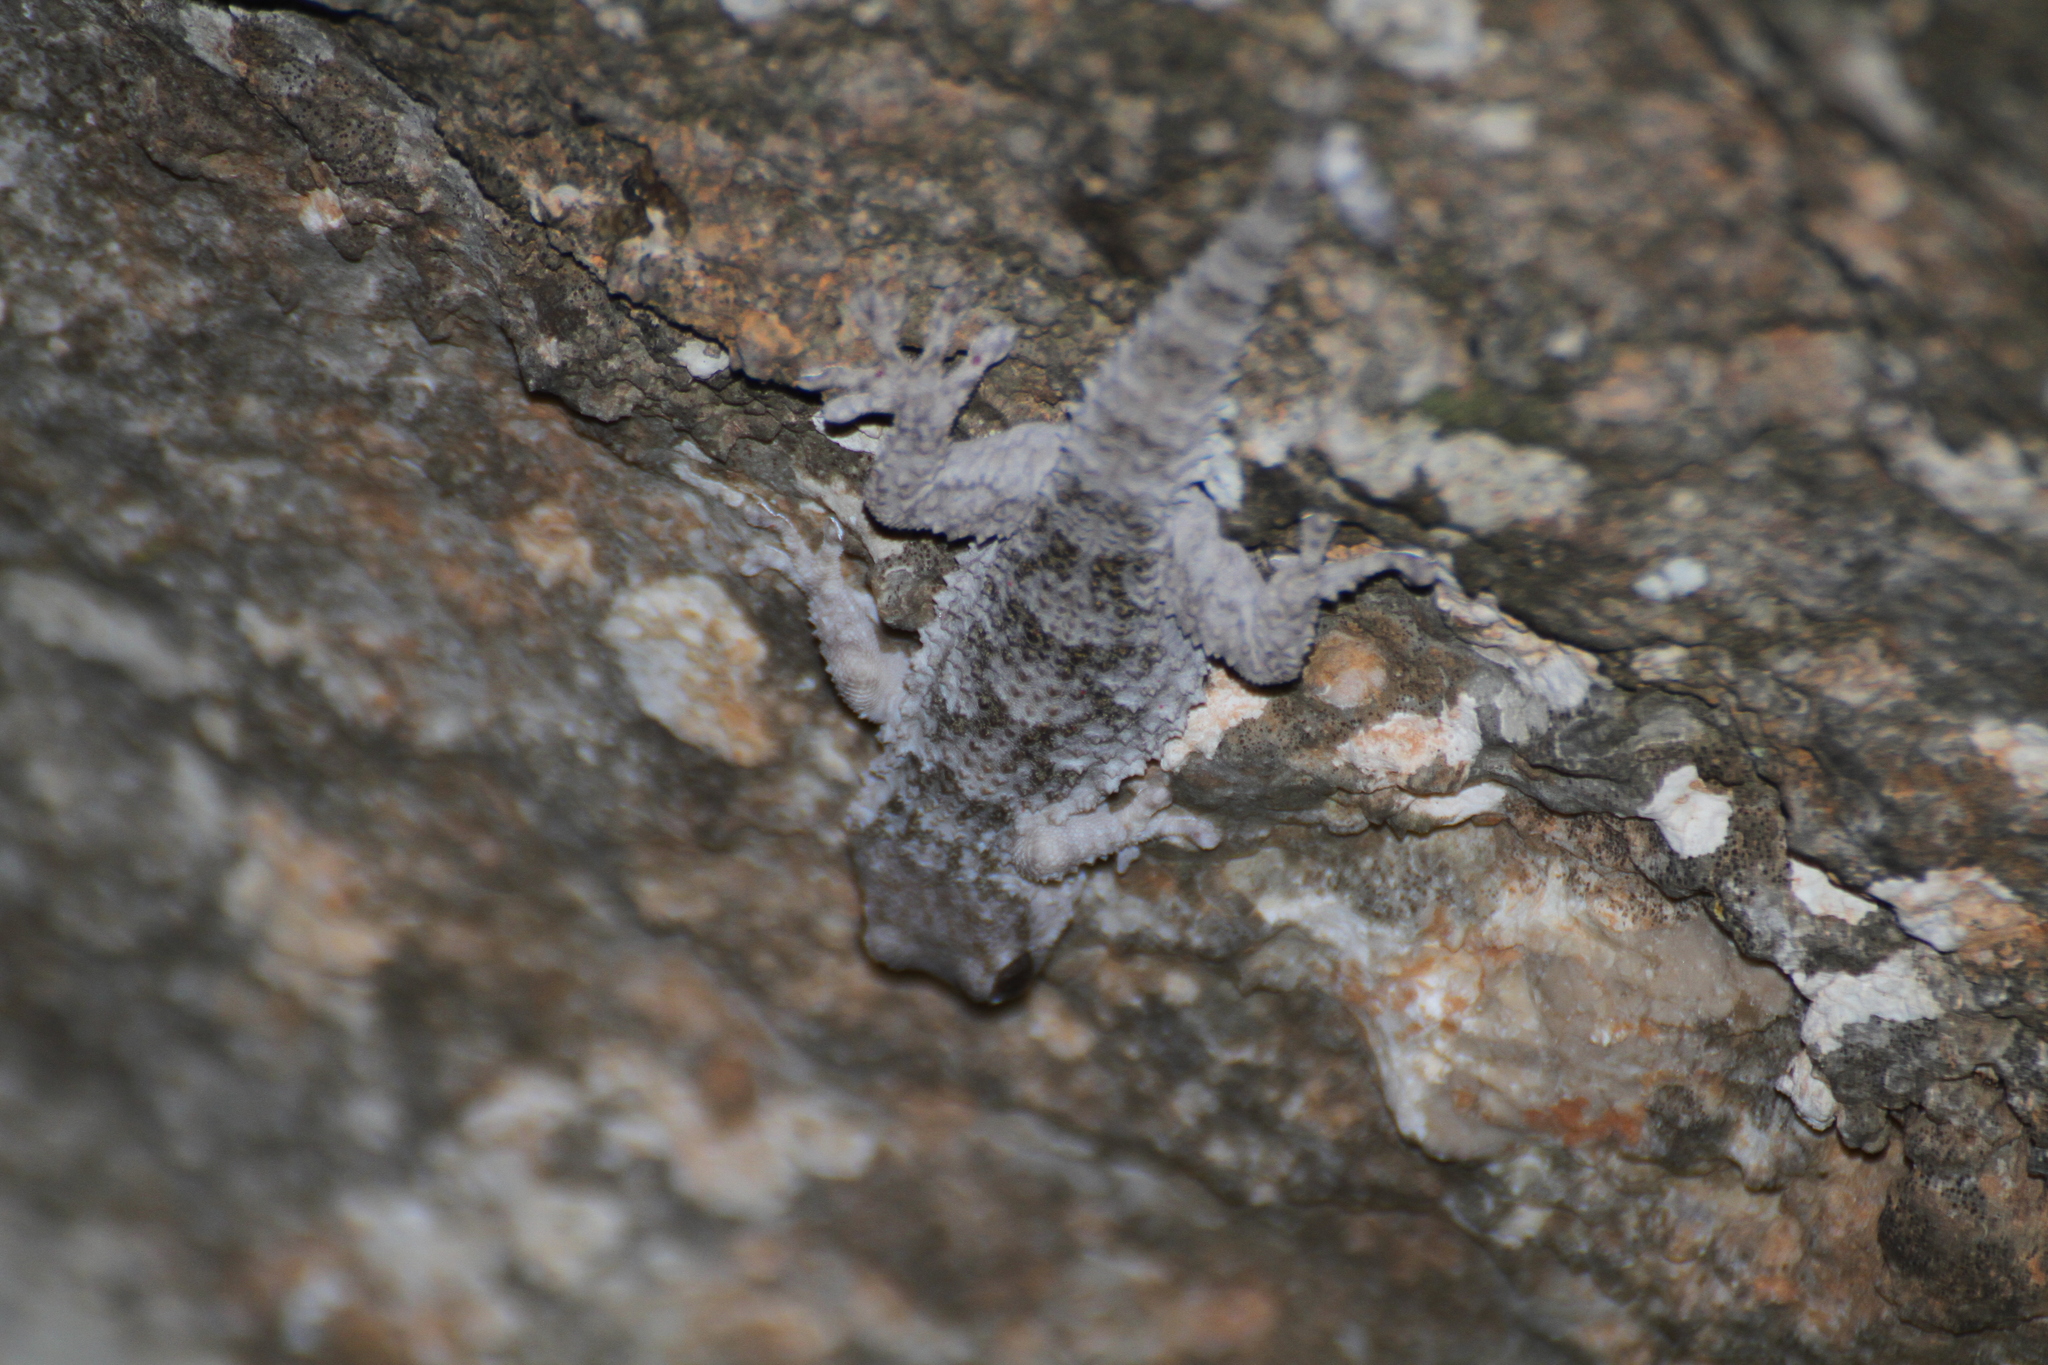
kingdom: Animalia
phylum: Chordata
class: Squamata
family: Phyllodactylidae
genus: Tarentola
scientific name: Tarentola mauritanica
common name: Moorish gecko
